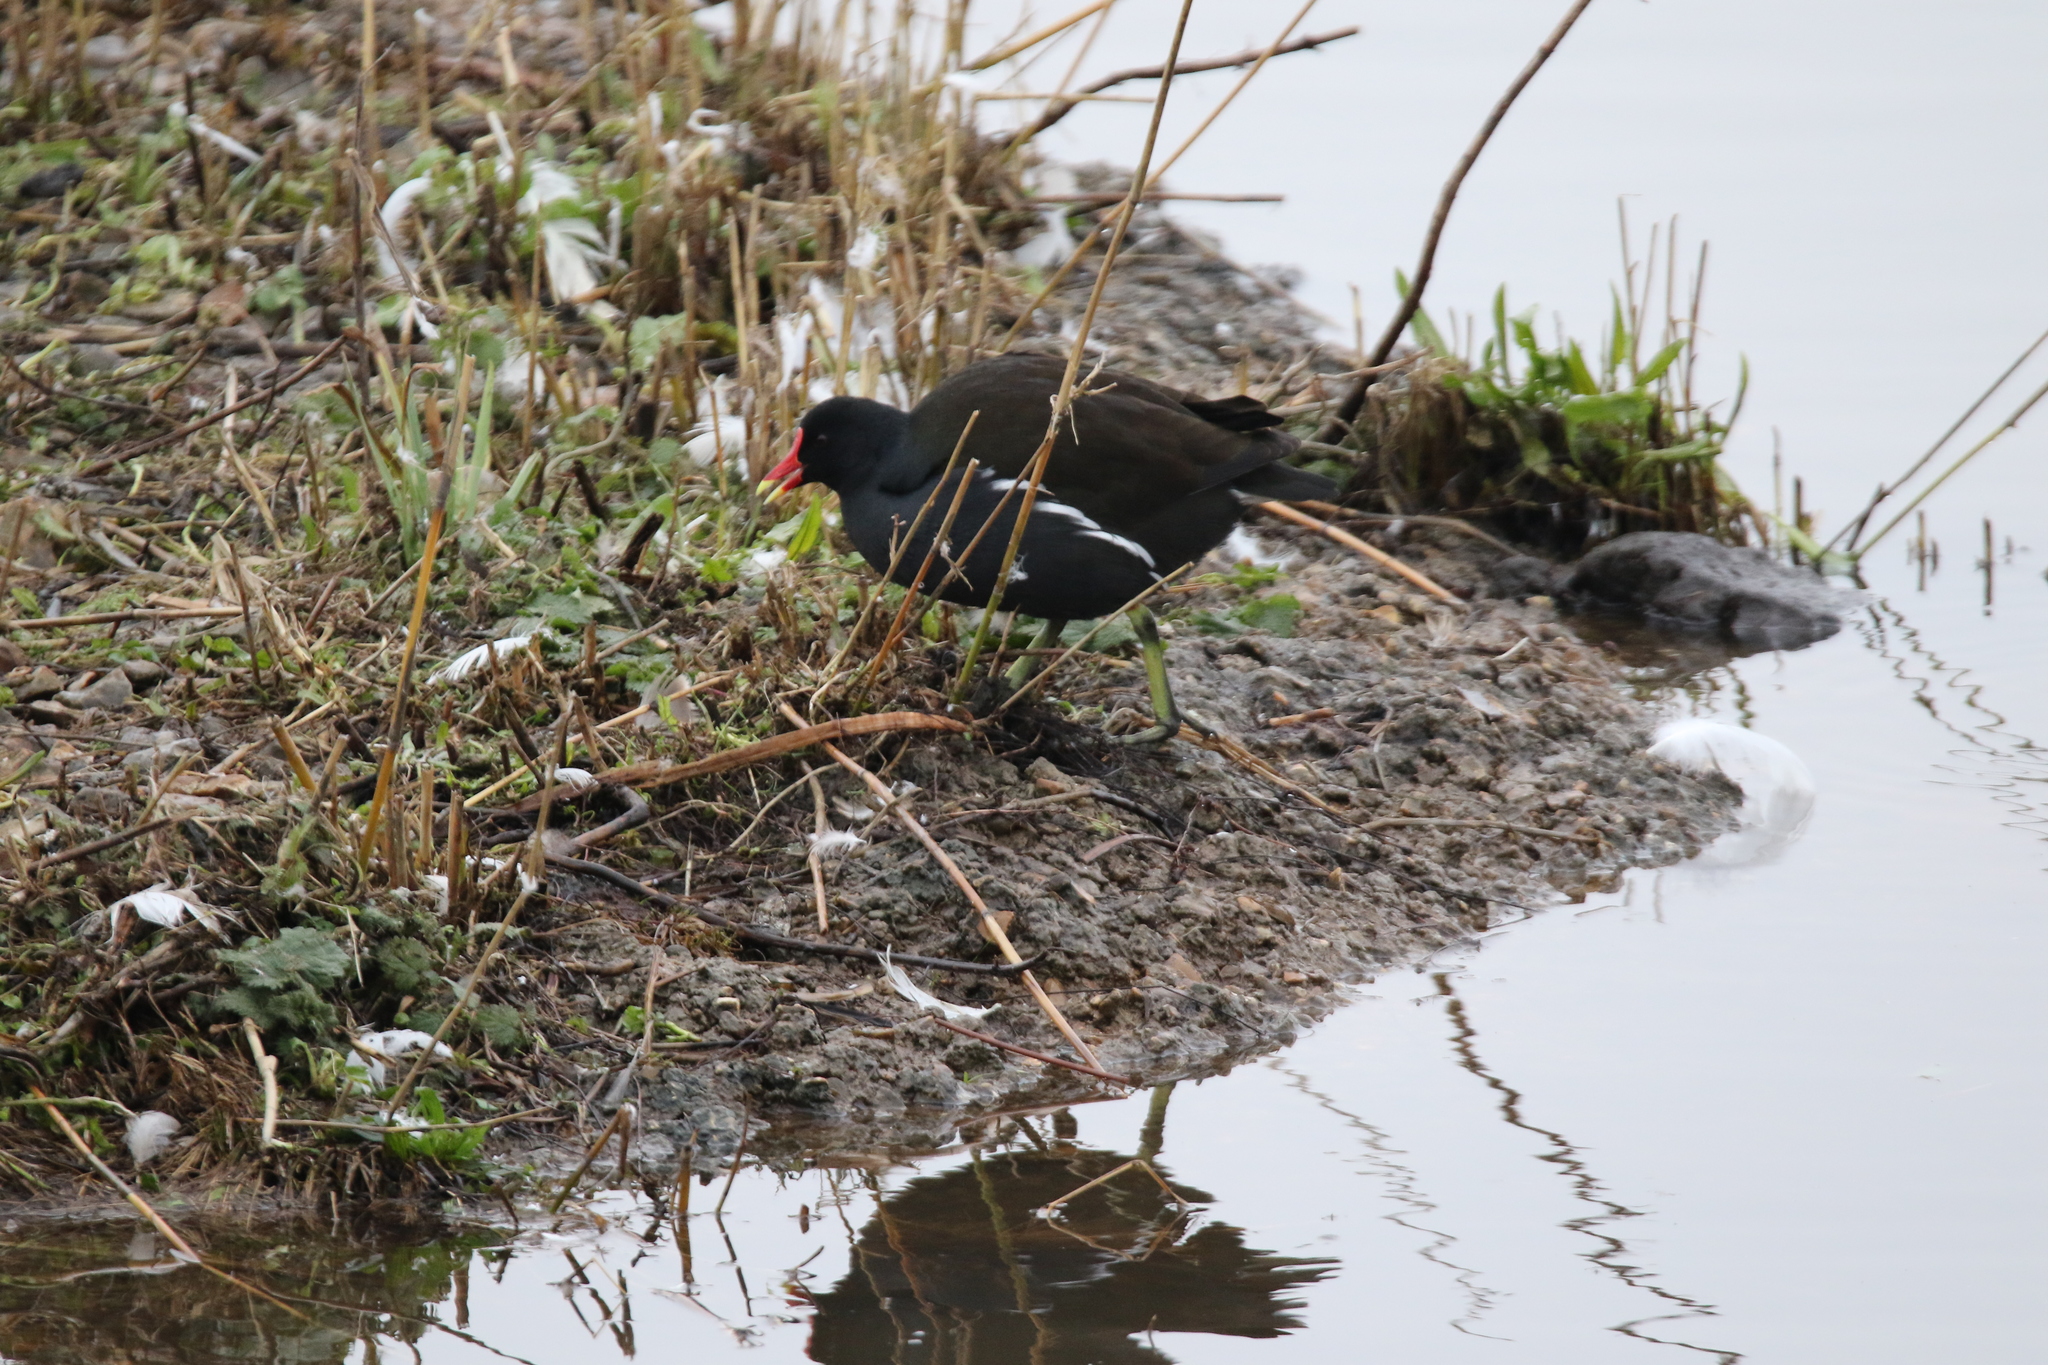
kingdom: Animalia
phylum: Chordata
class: Aves
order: Gruiformes
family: Rallidae
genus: Gallinula
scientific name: Gallinula chloropus
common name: Common moorhen
